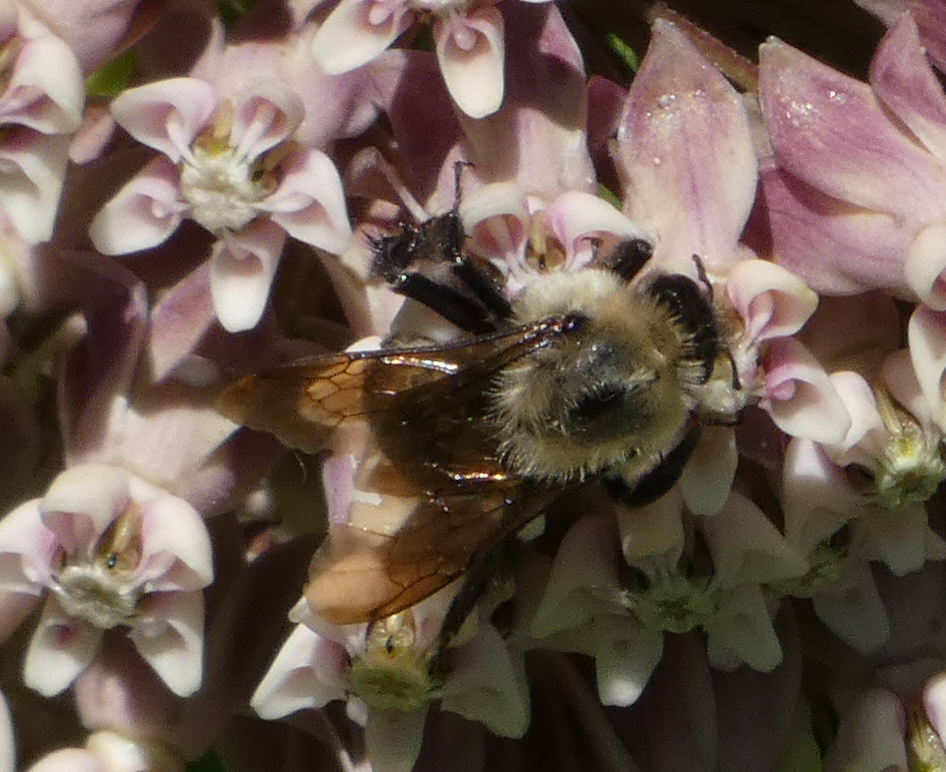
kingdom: Animalia
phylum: Arthropoda
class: Insecta
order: Hymenoptera
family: Apidae
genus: Bombus
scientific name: Bombus griseocollis
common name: Brown-belted bumble bee
